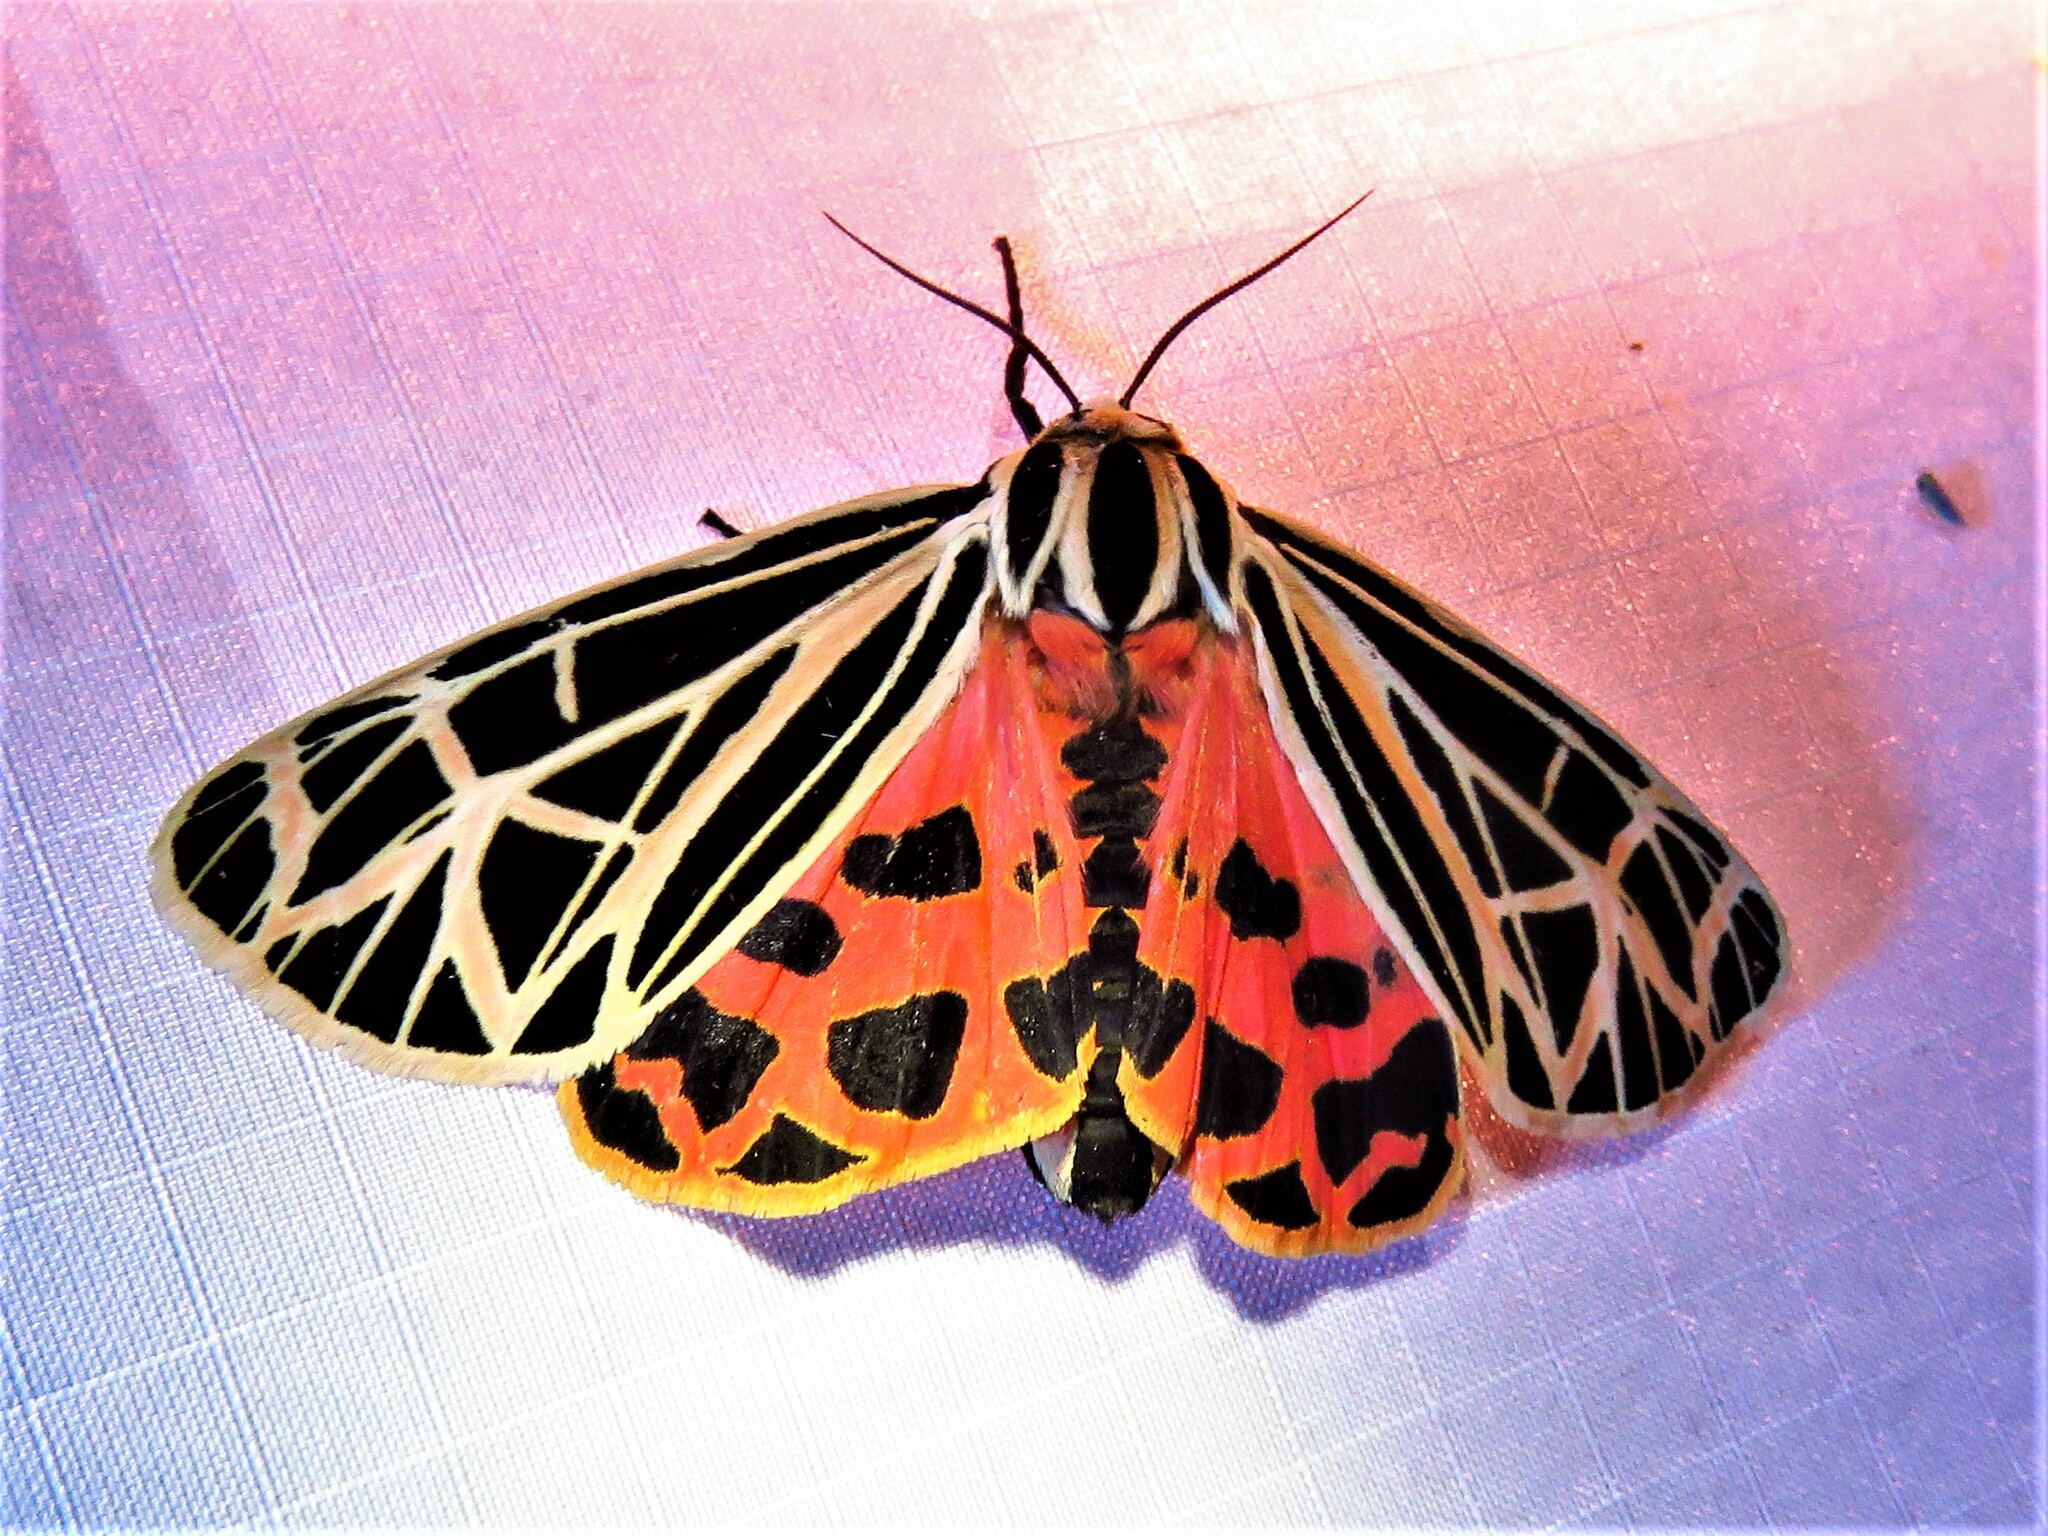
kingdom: Animalia
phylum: Arthropoda
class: Insecta
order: Lepidoptera
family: Erebidae
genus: Grammia
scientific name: Grammia virgo
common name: Virgin tiger moth
